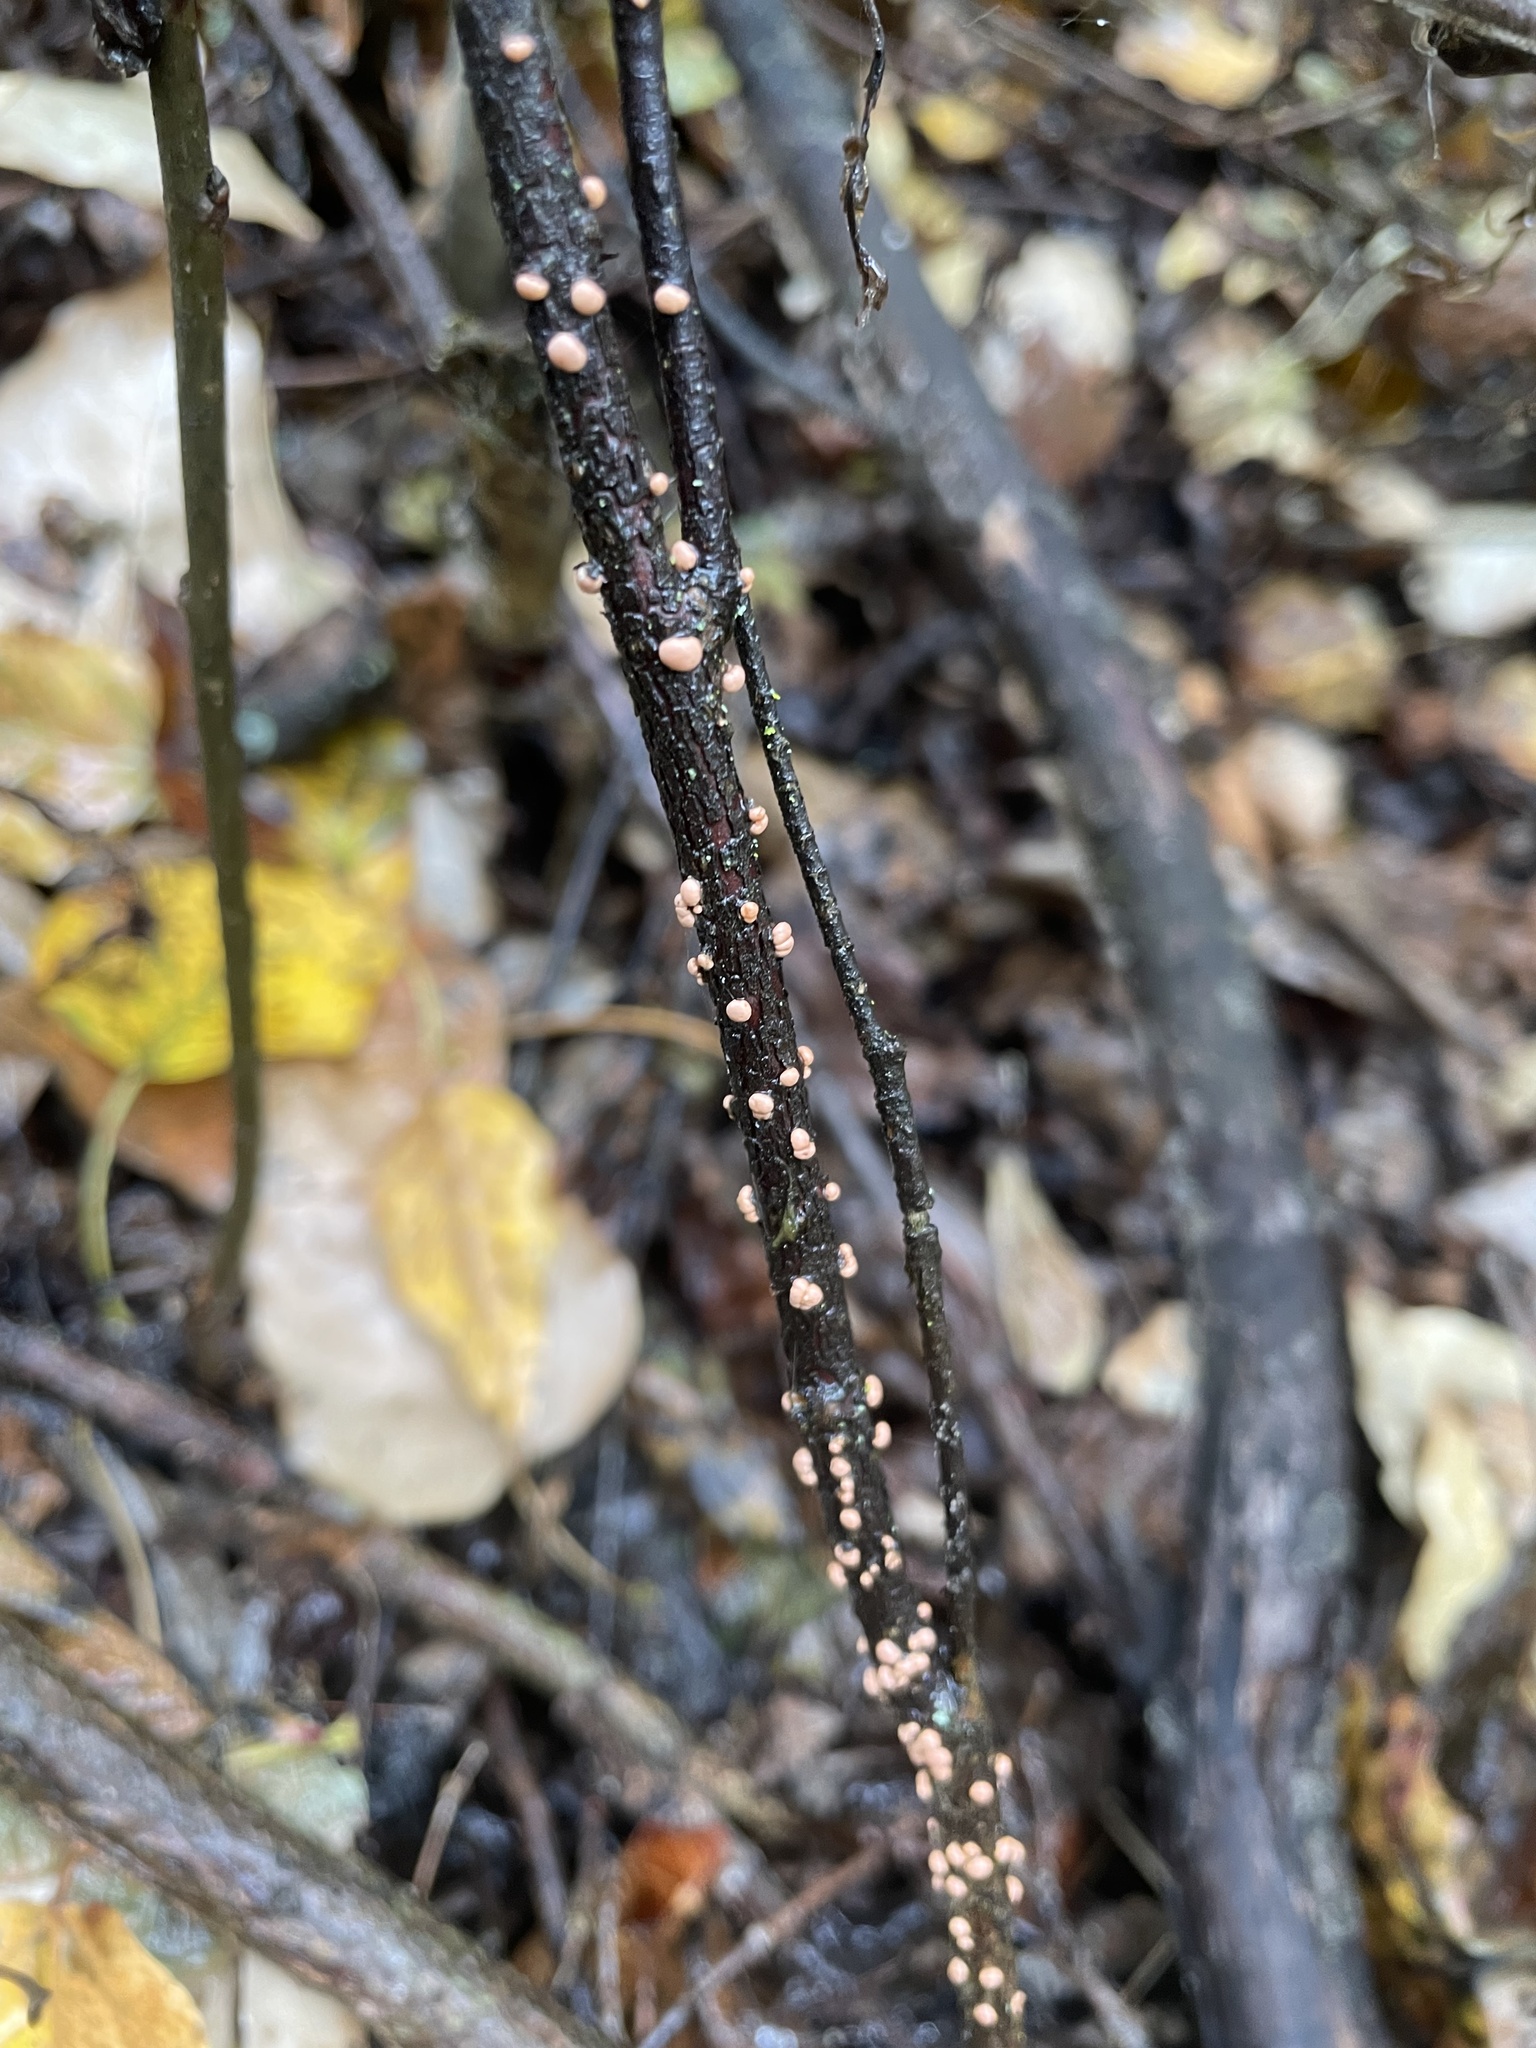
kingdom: Fungi
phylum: Ascomycota
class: Sordariomycetes
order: Hypocreales
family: Nectriaceae
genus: Nectria
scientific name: Nectria cinnabarina
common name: Coral spot
